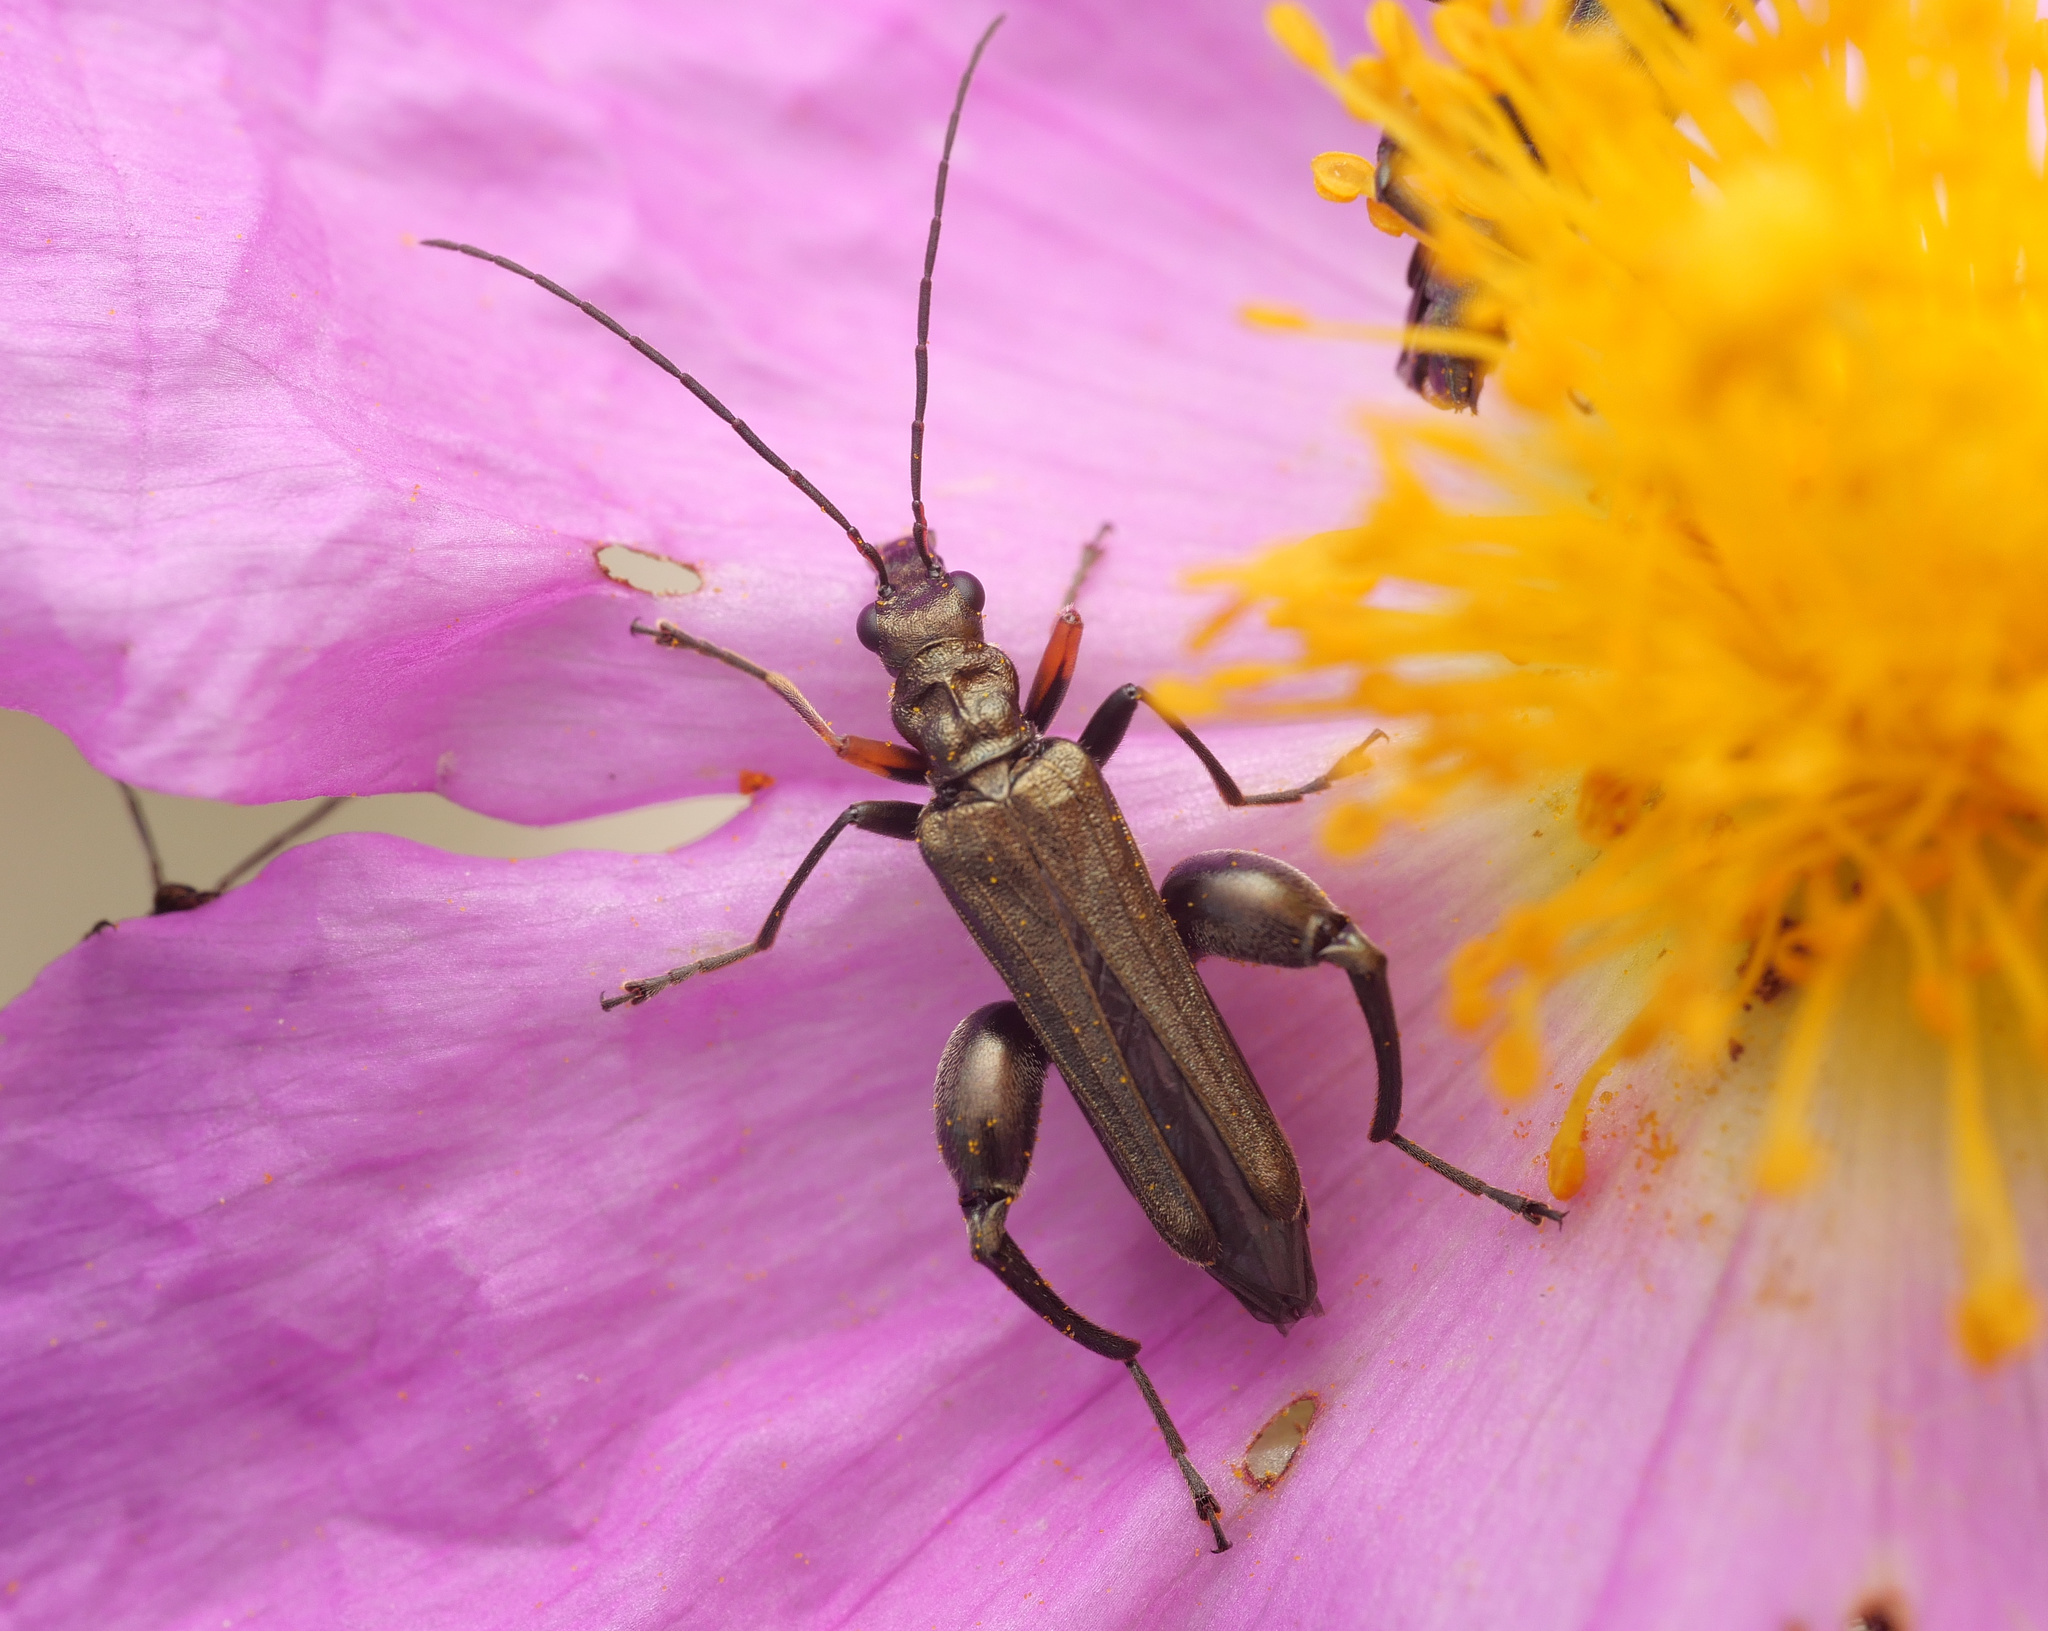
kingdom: Animalia
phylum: Arthropoda
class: Insecta
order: Coleoptera
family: Oedemeridae
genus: Oedemera
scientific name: Oedemera flavipes
